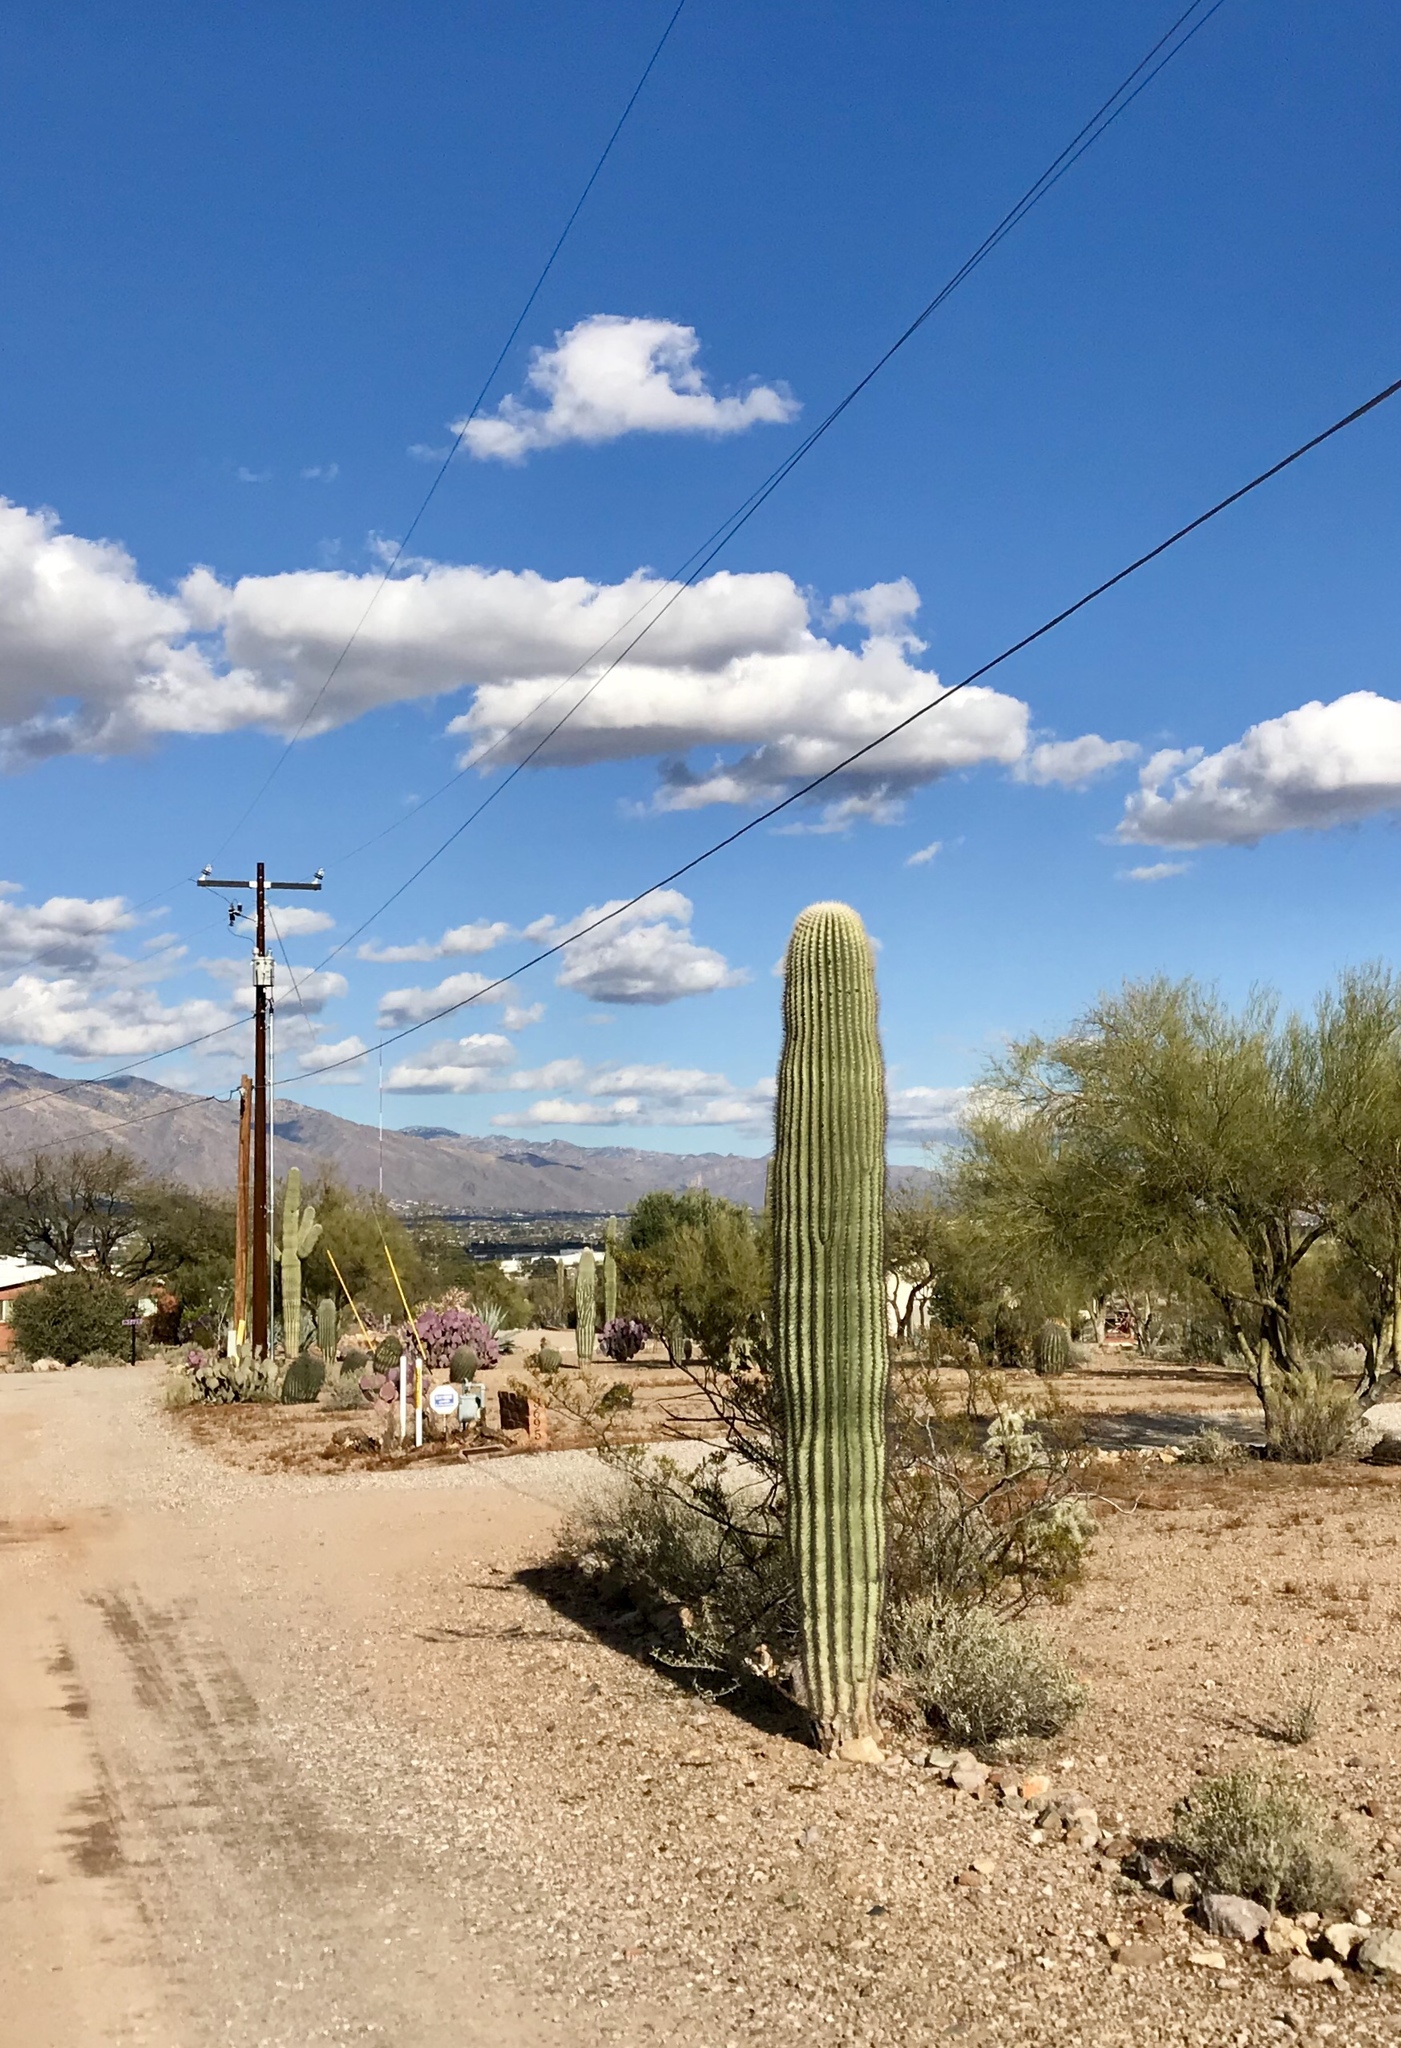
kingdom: Plantae
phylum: Tracheophyta
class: Magnoliopsida
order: Caryophyllales
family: Cactaceae
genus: Carnegiea
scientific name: Carnegiea gigantea
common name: Saguaro
